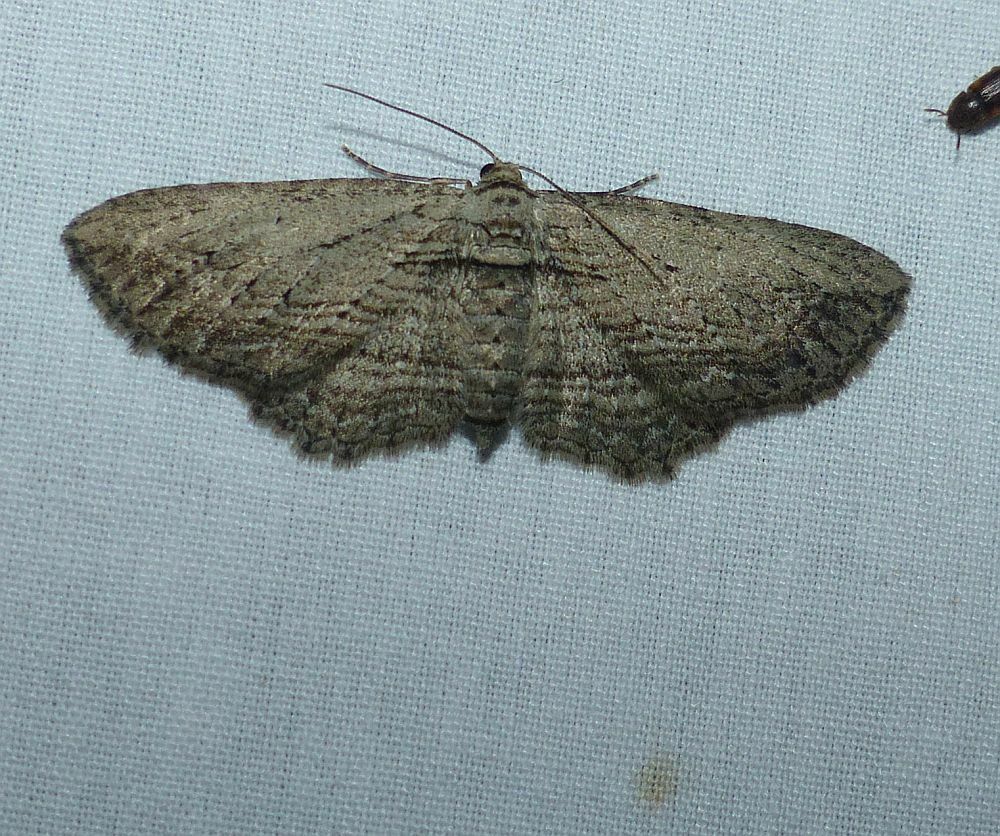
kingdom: Animalia
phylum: Arthropoda
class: Insecta
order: Lepidoptera
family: Geometridae
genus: Horisme
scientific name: Horisme intestinata
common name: Brown bark carpet
